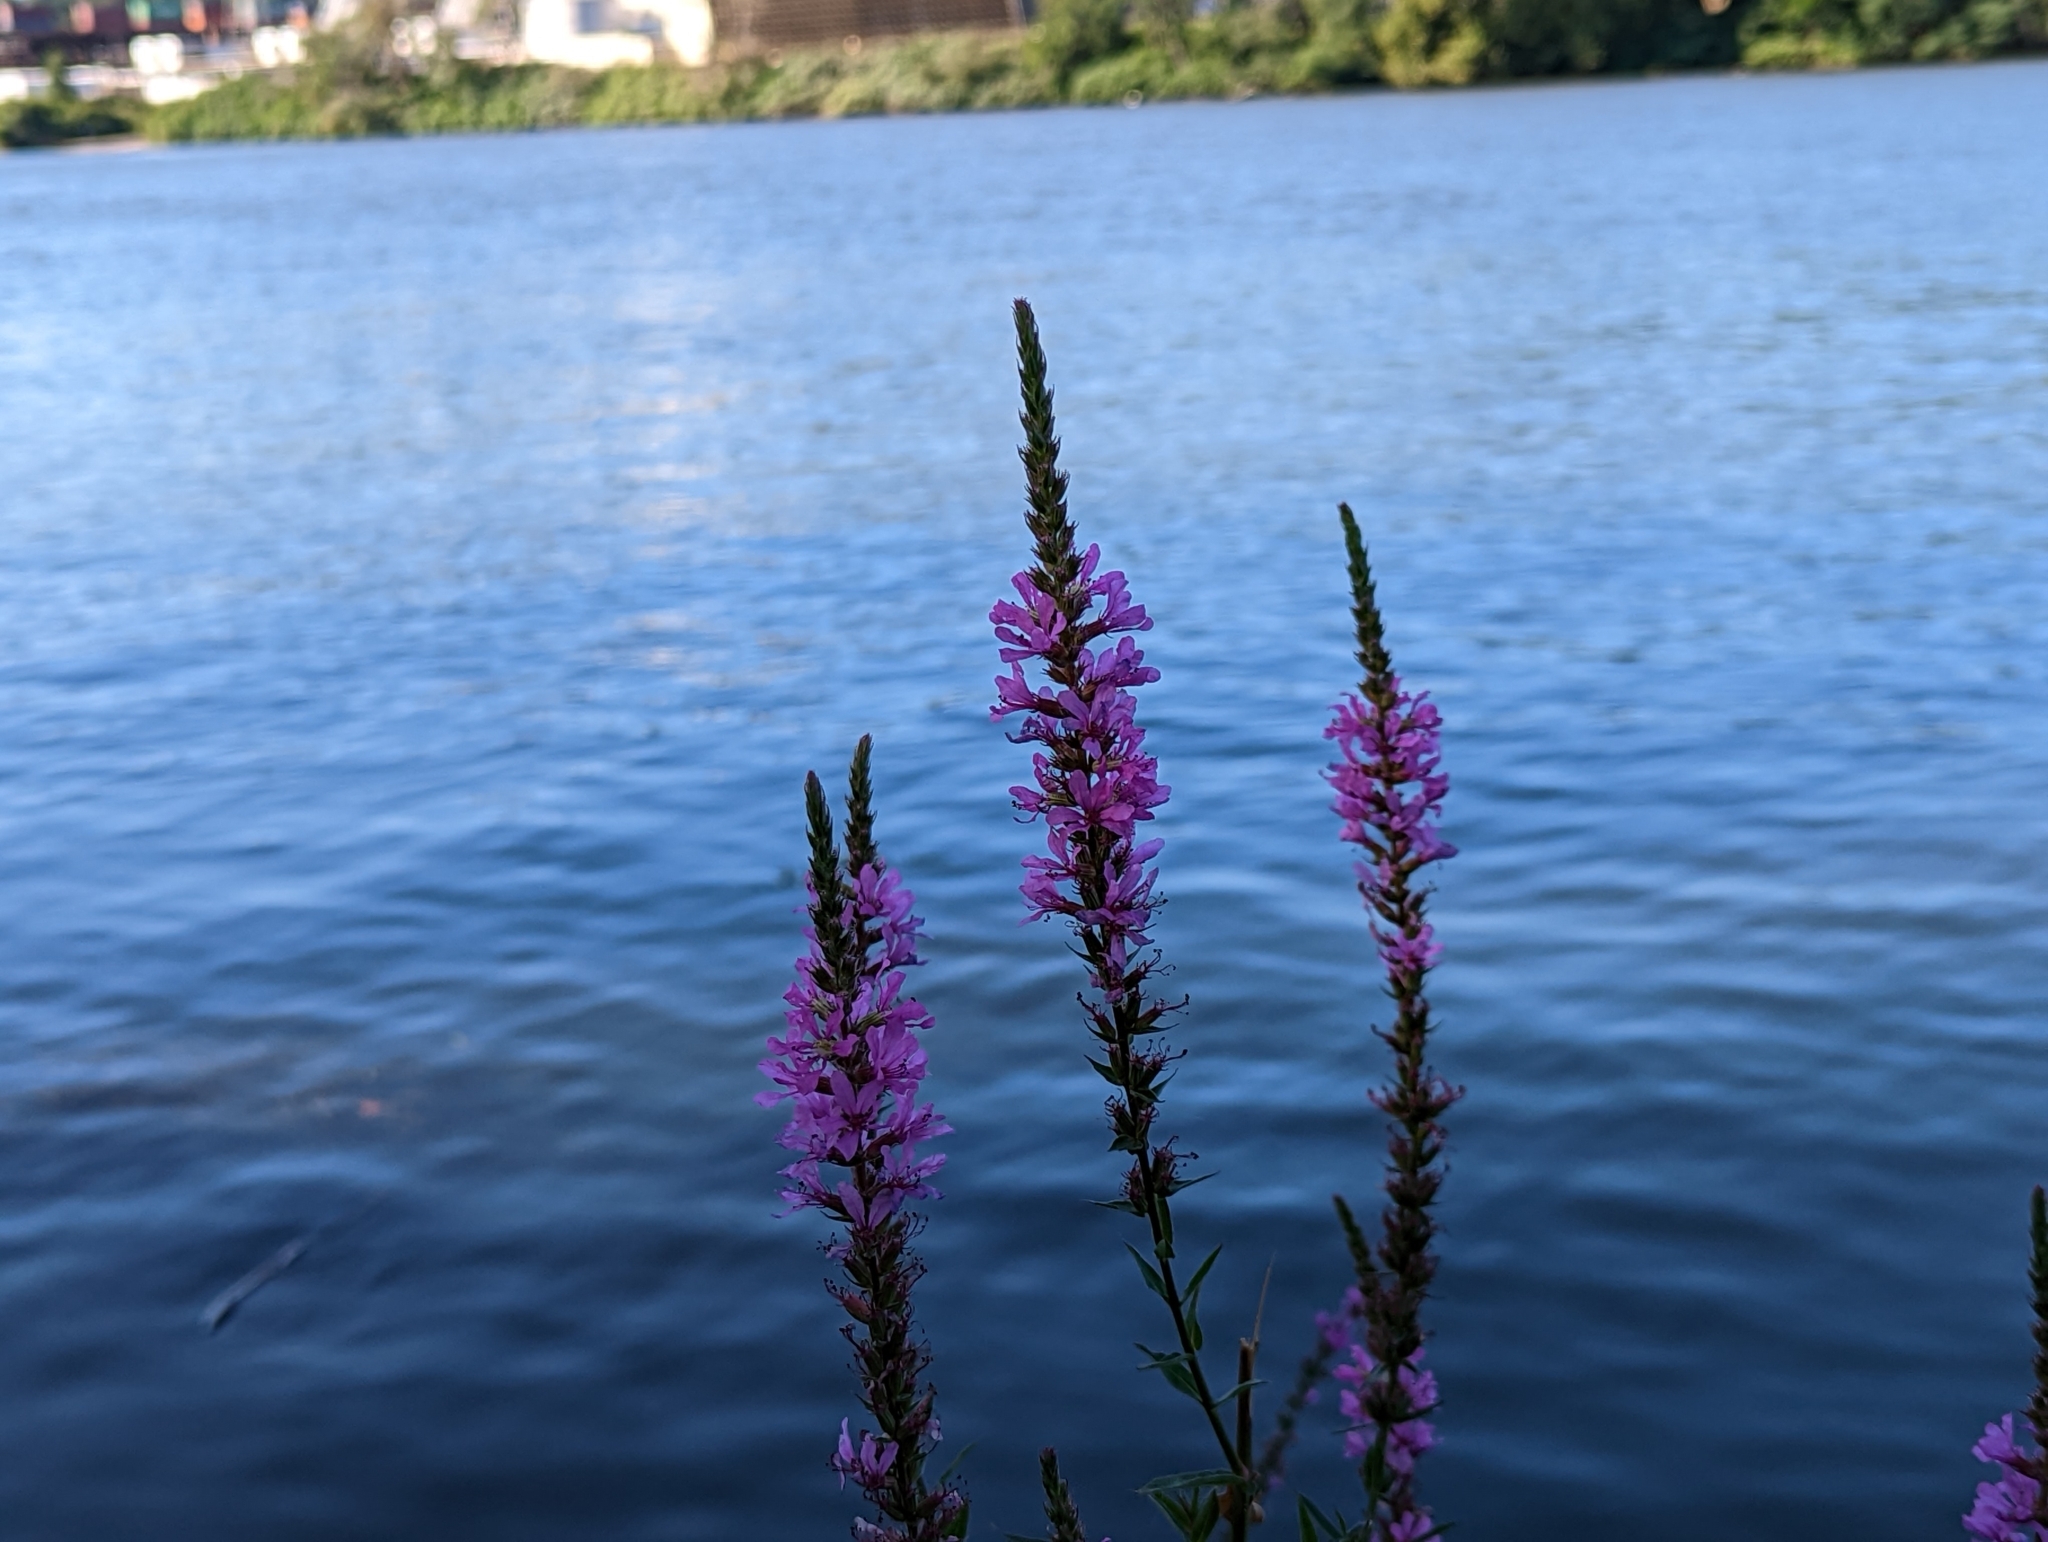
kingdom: Plantae
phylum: Tracheophyta
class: Magnoliopsida
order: Myrtales
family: Lythraceae
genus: Lythrum
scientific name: Lythrum salicaria
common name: Purple loosestrife
